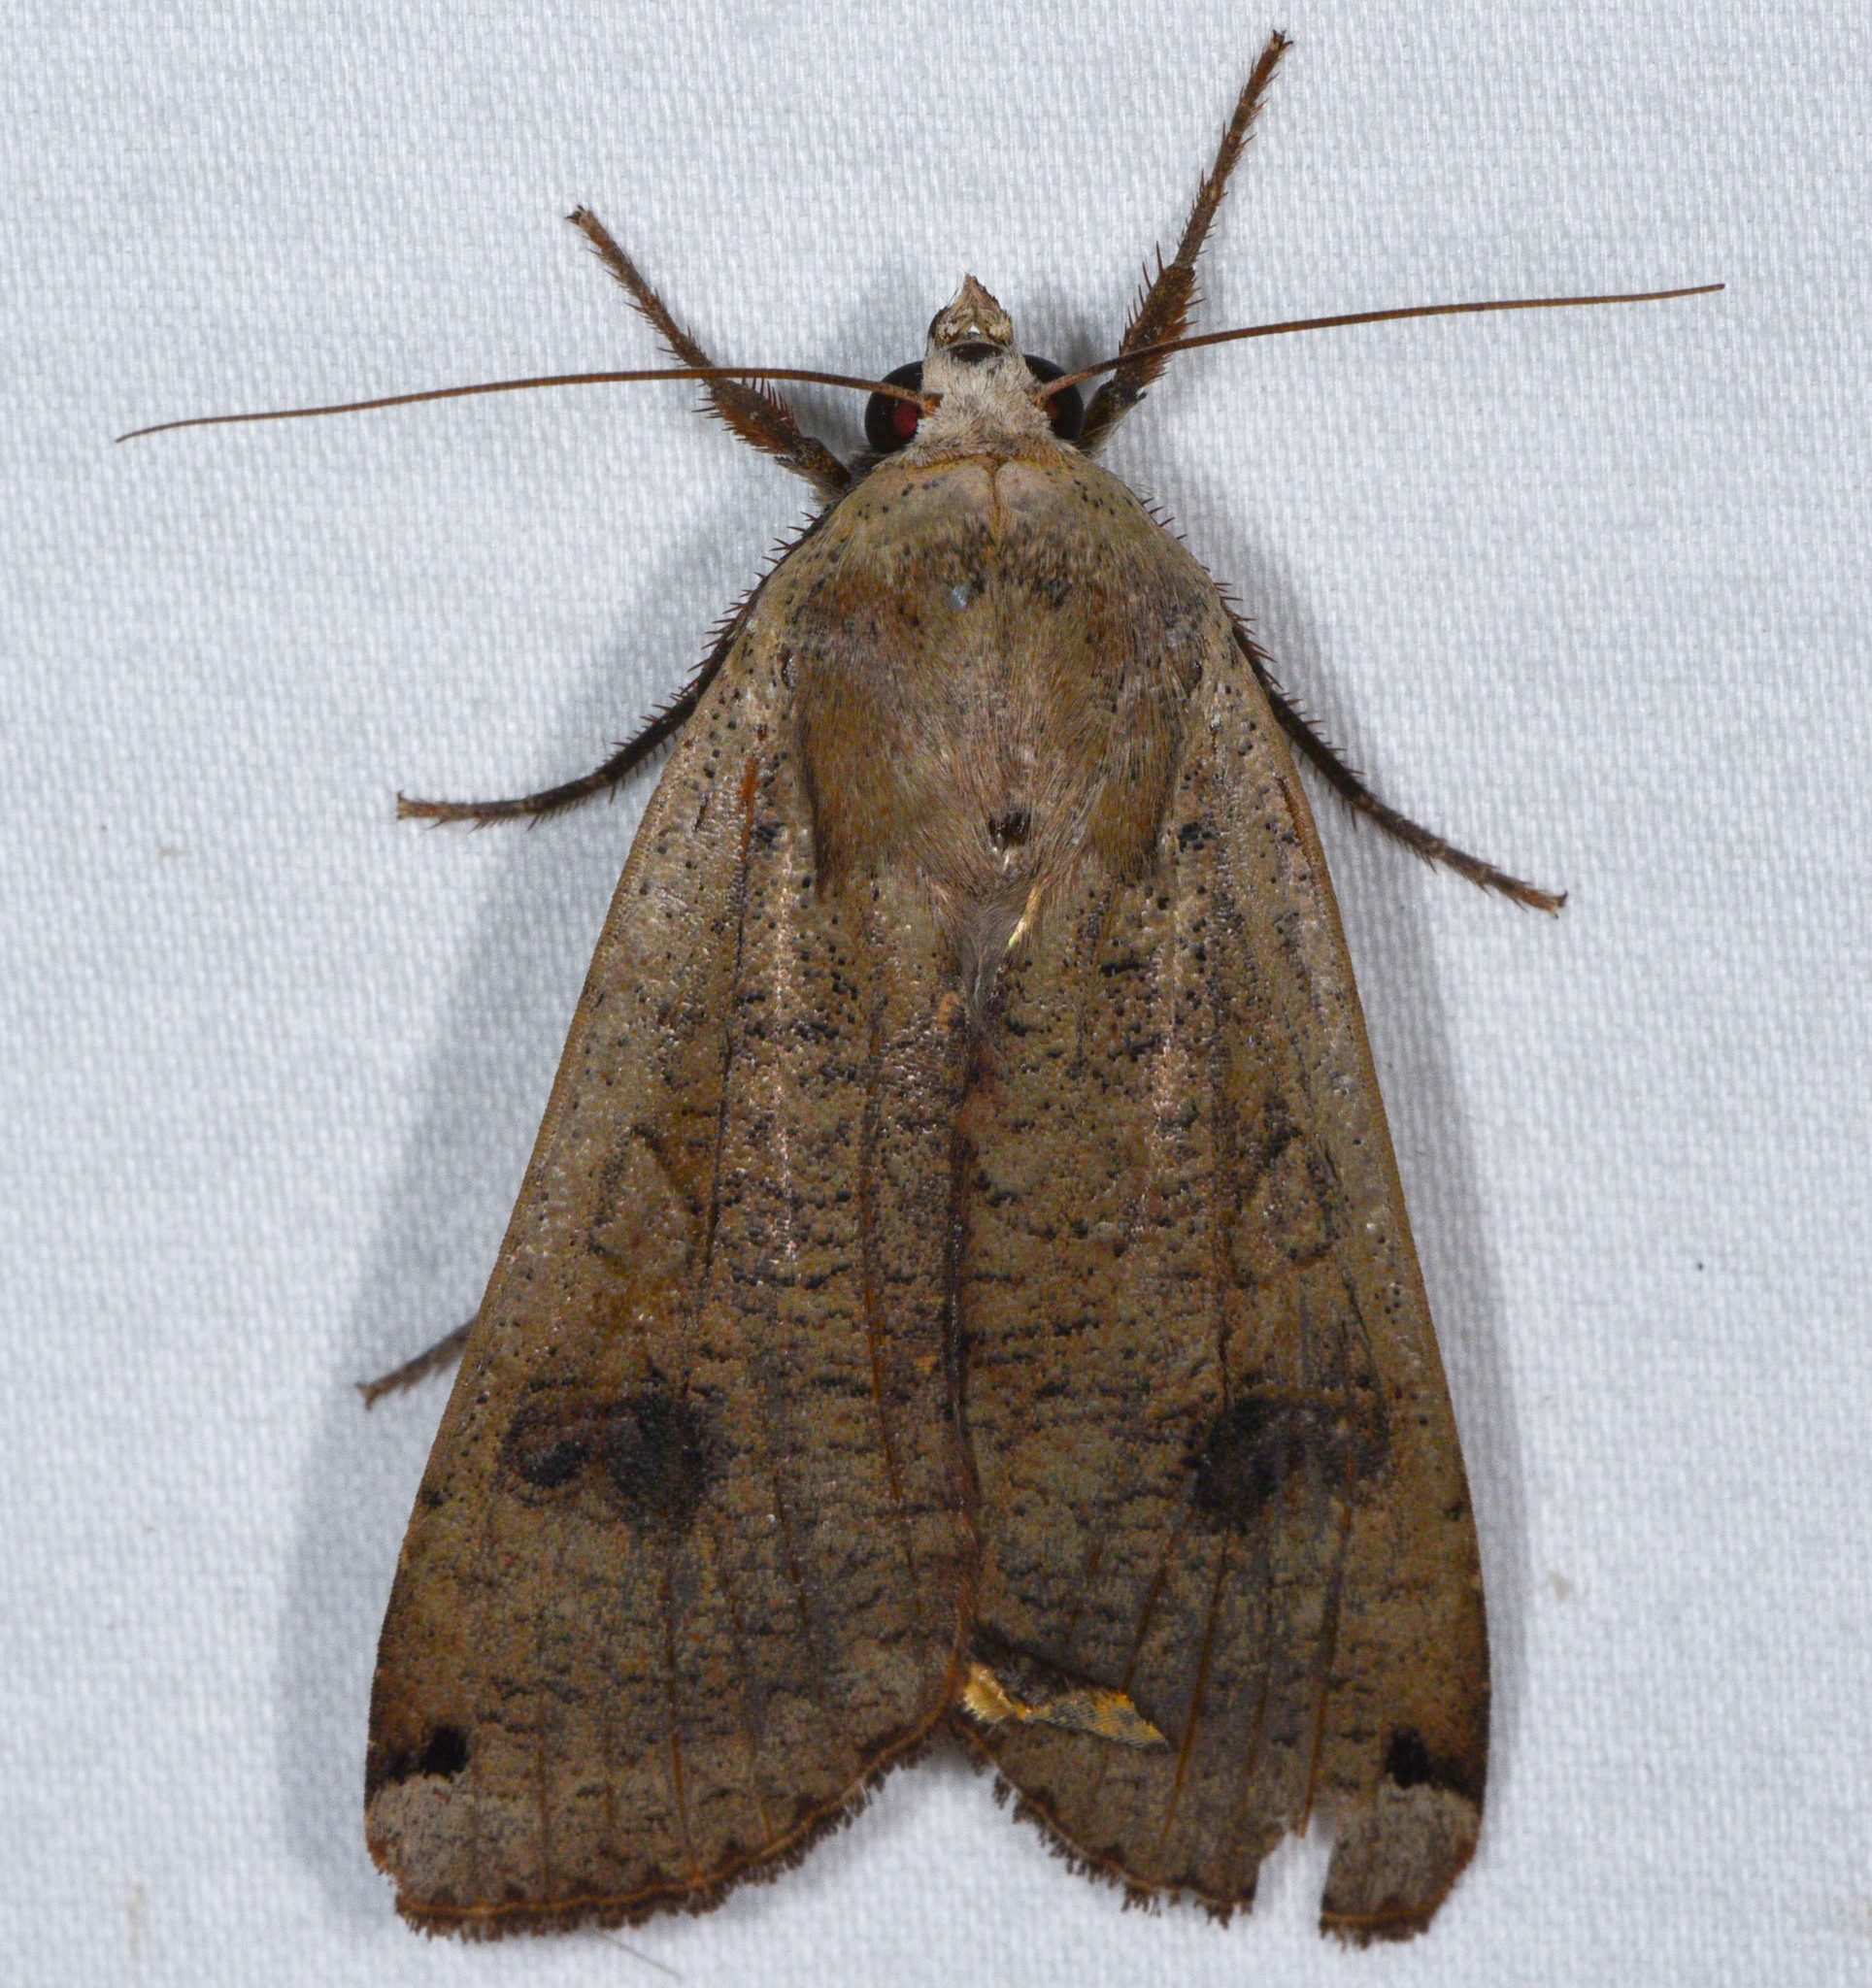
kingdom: Animalia
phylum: Arthropoda
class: Insecta
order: Lepidoptera
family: Noctuidae
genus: Noctua
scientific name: Noctua pronuba
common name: Large yellow underwing
